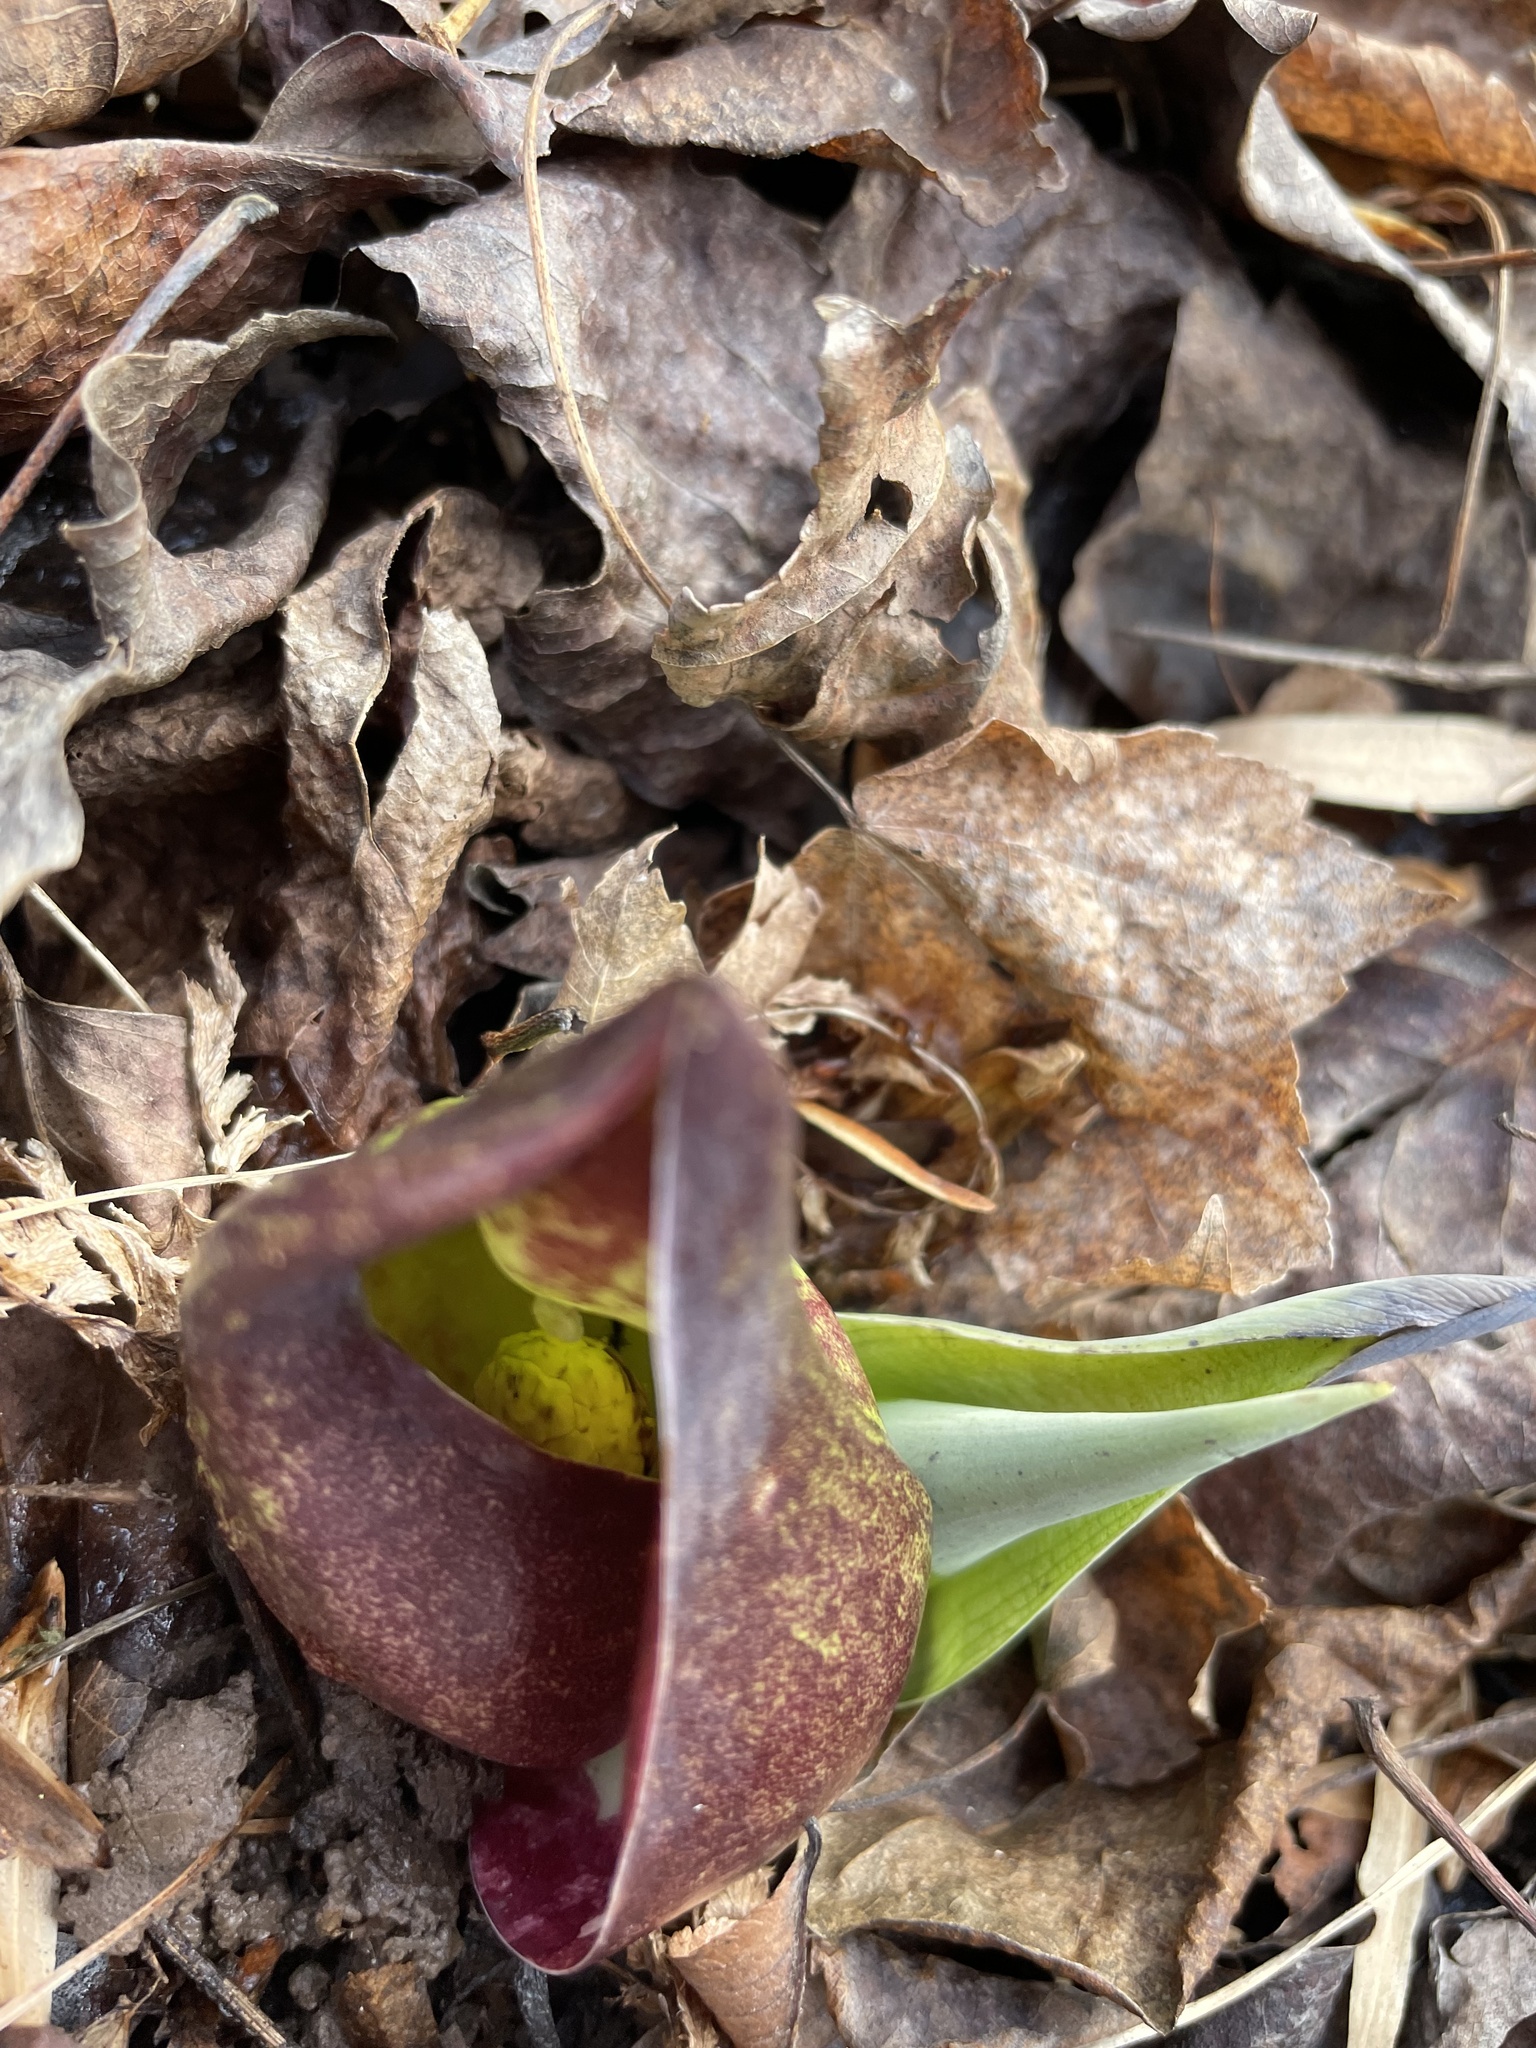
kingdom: Plantae
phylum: Tracheophyta
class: Liliopsida
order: Alismatales
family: Araceae
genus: Symplocarpus
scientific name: Symplocarpus foetidus
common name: Eastern skunk cabbage
